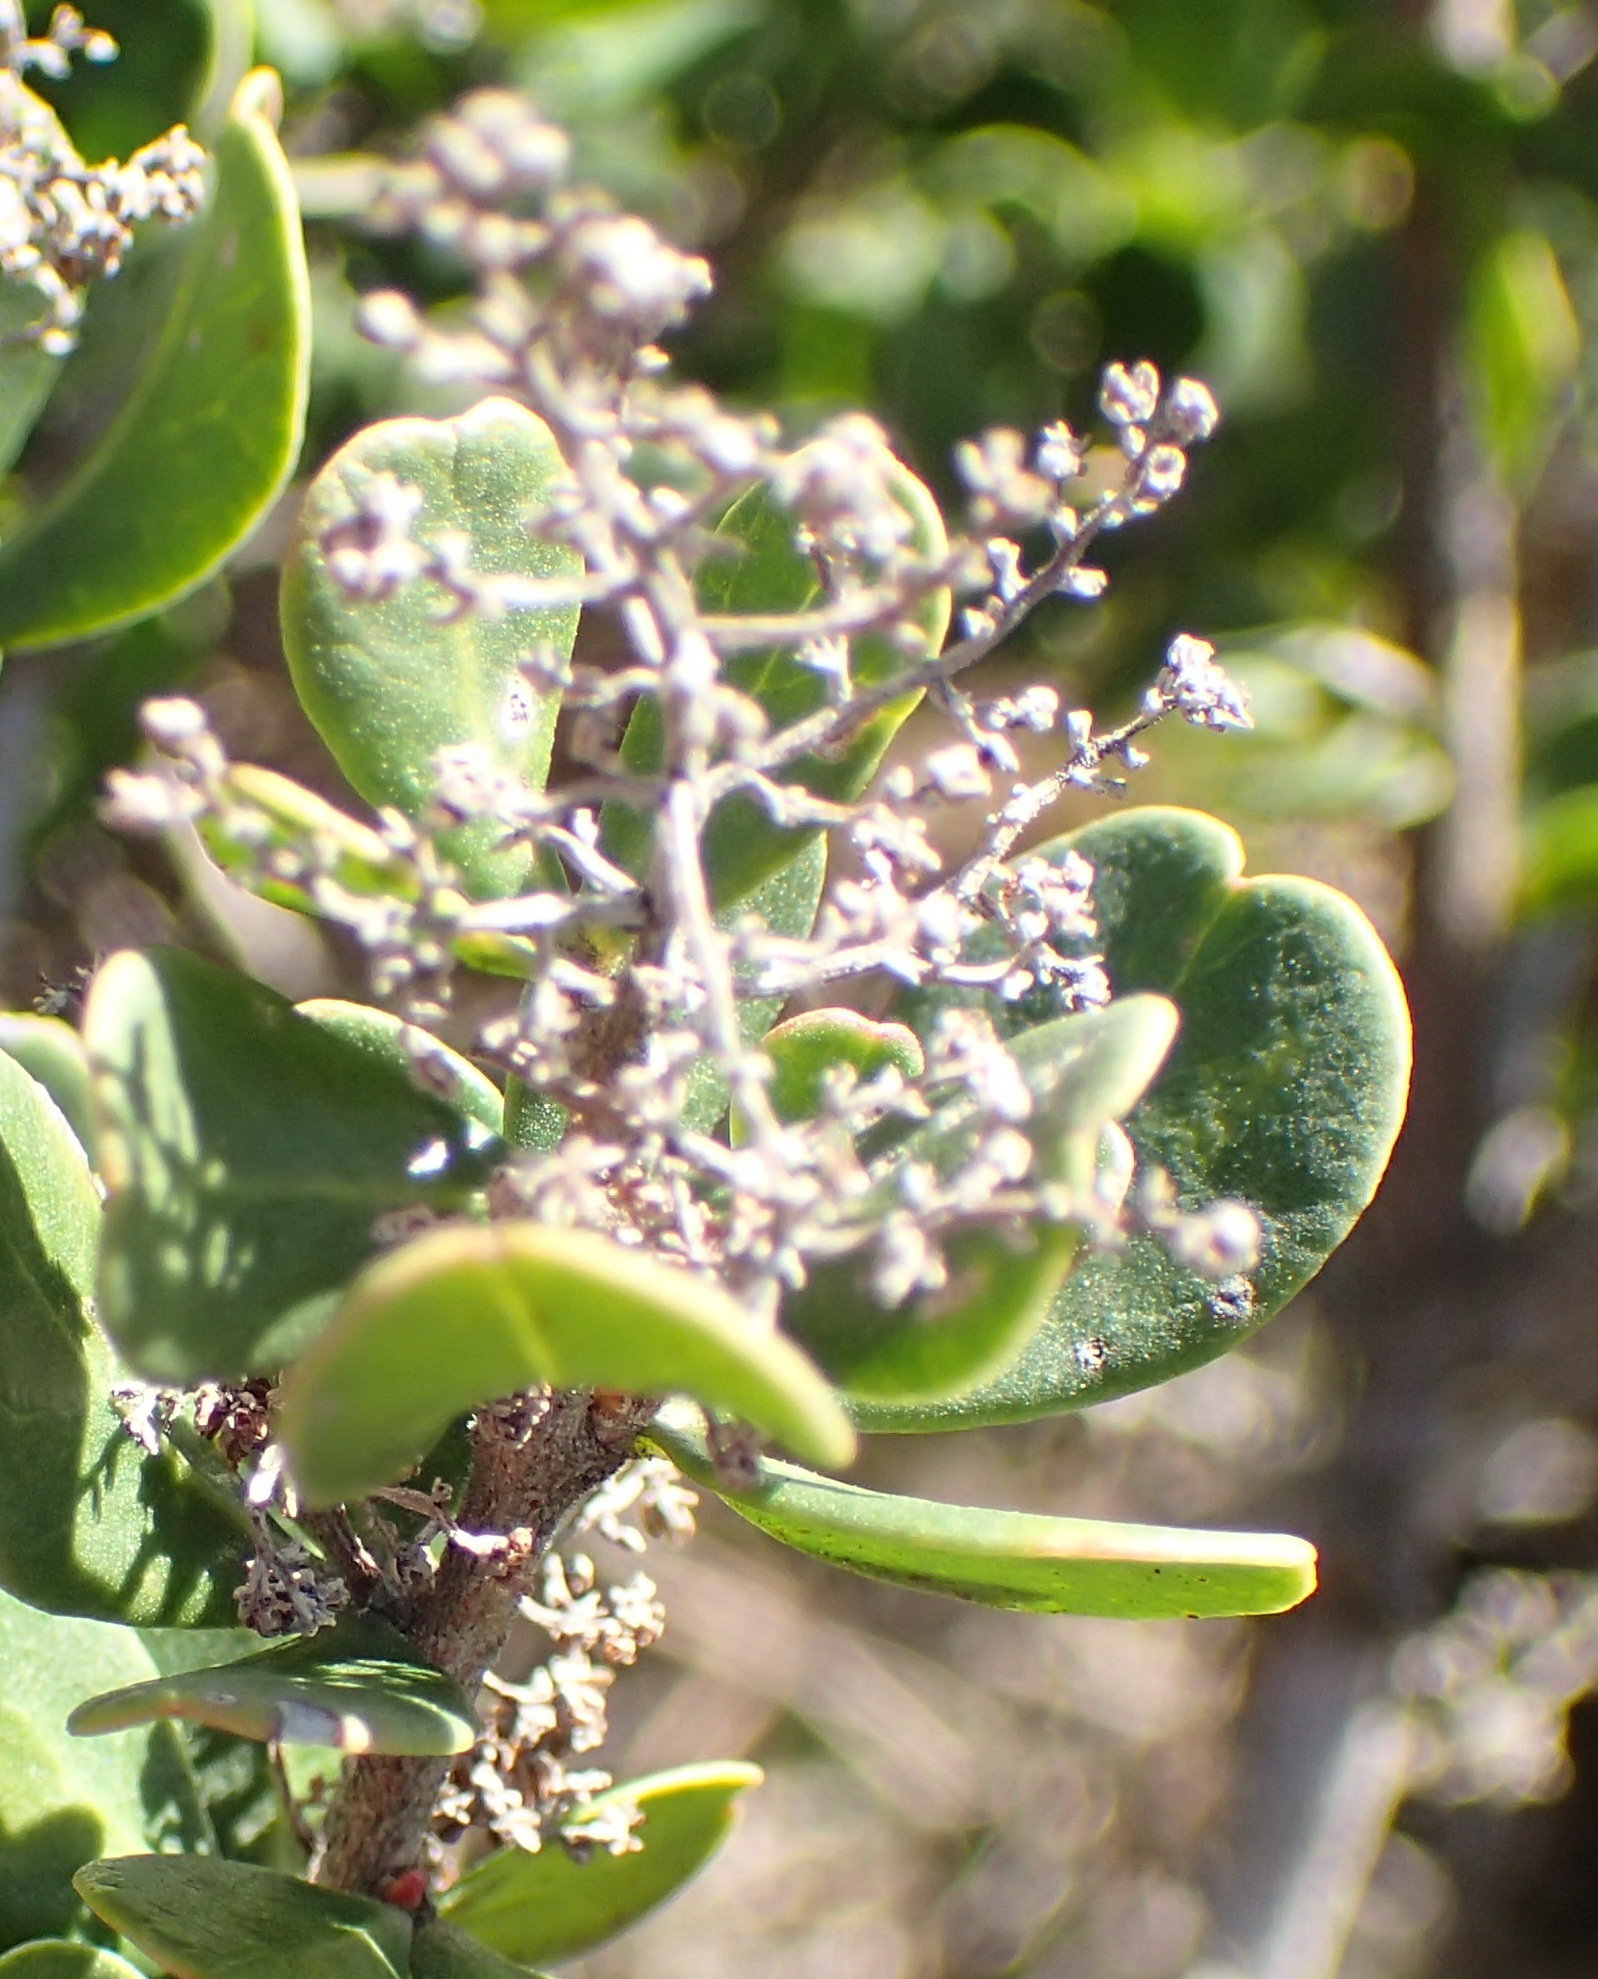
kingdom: Plantae
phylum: Tracheophyta
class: Magnoliopsida
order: Sapindales
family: Anacardiaceae
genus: Searsia
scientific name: Searsia glauca
